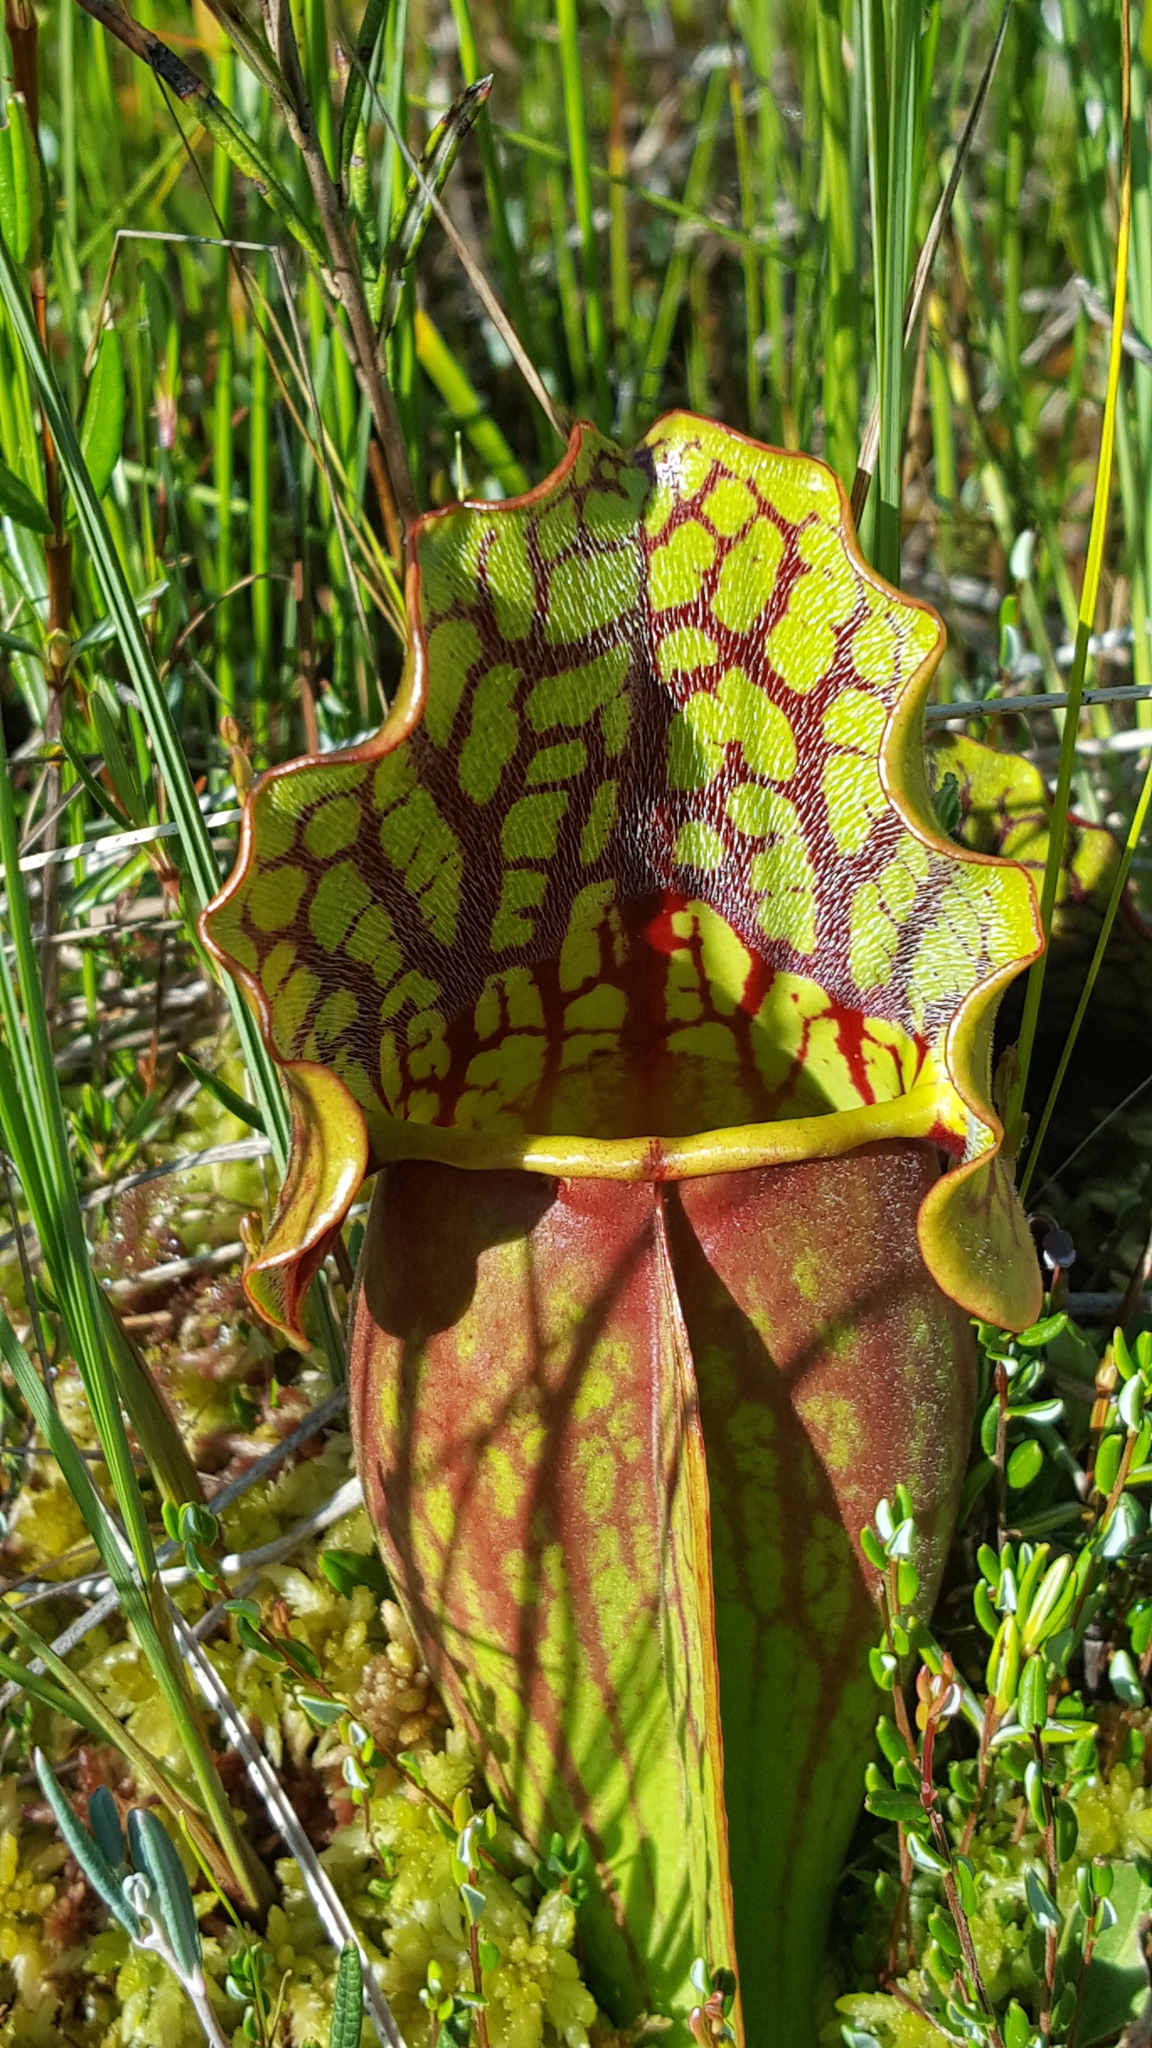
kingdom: Plantae
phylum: Tracheophyta
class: Magnoliopsida
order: Ericales
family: Sarraceniaceae
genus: Sarracenia
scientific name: Sarracenia purpurea
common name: Pitcherplant
